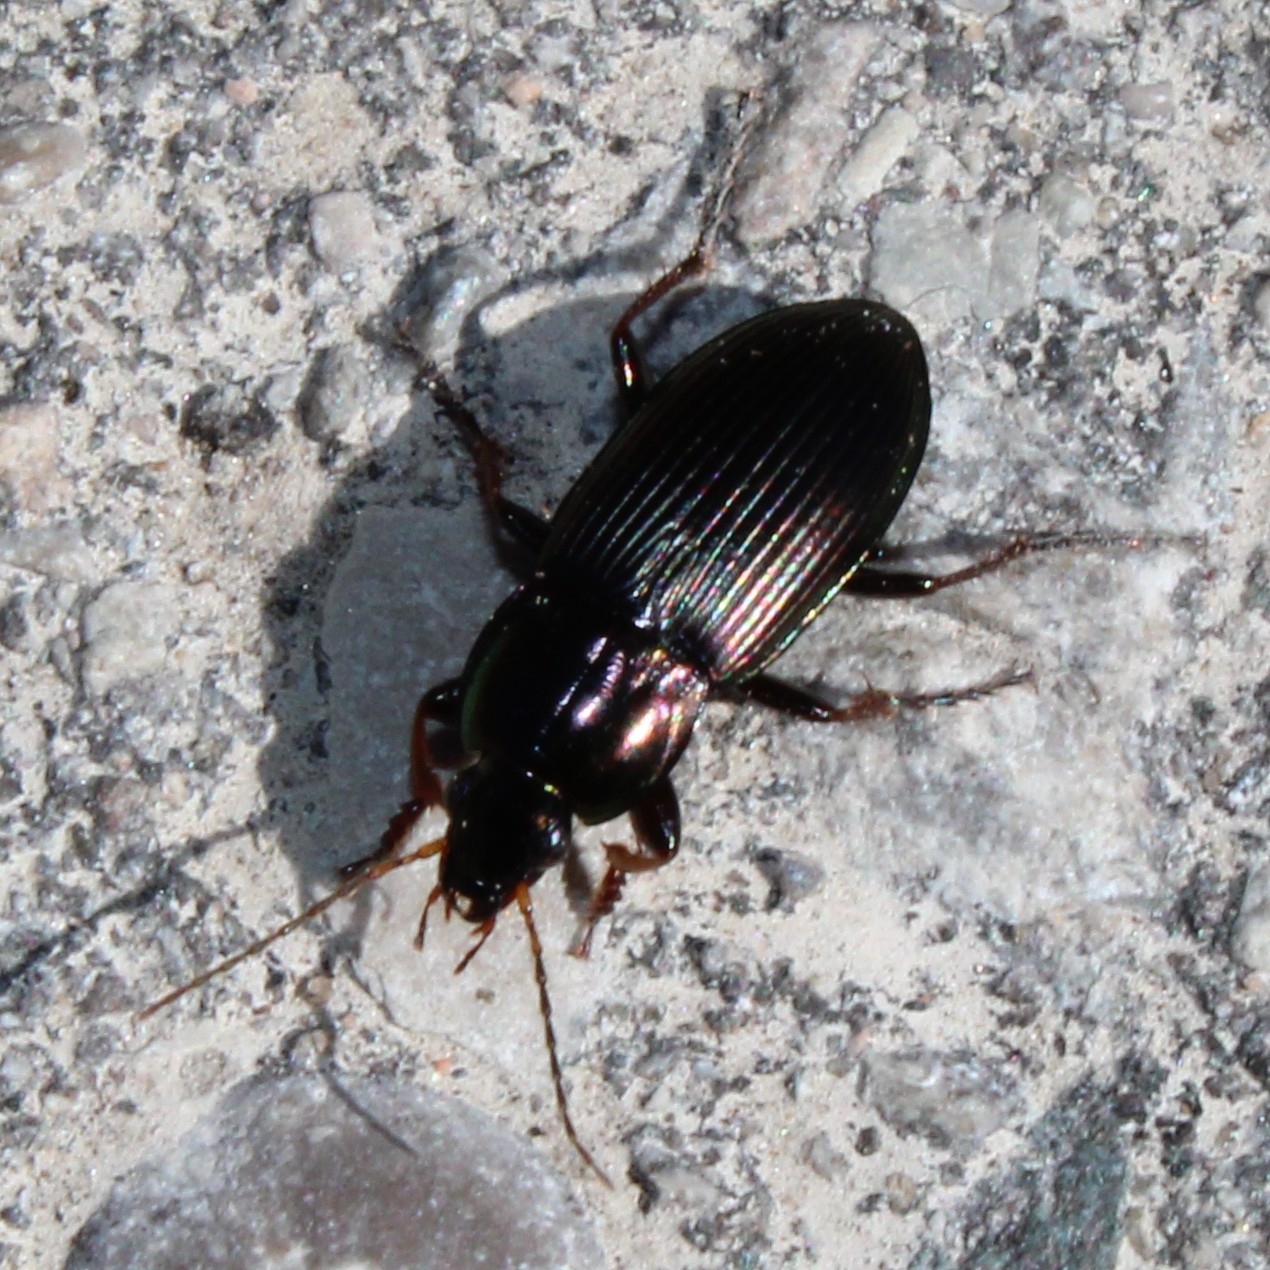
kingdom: Animalia
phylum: Arthropoda
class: Insecta
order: Coleoptera
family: Carabidae
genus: Poecilus
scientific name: Poecilus lucublandus
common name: Woodland ground beetle
